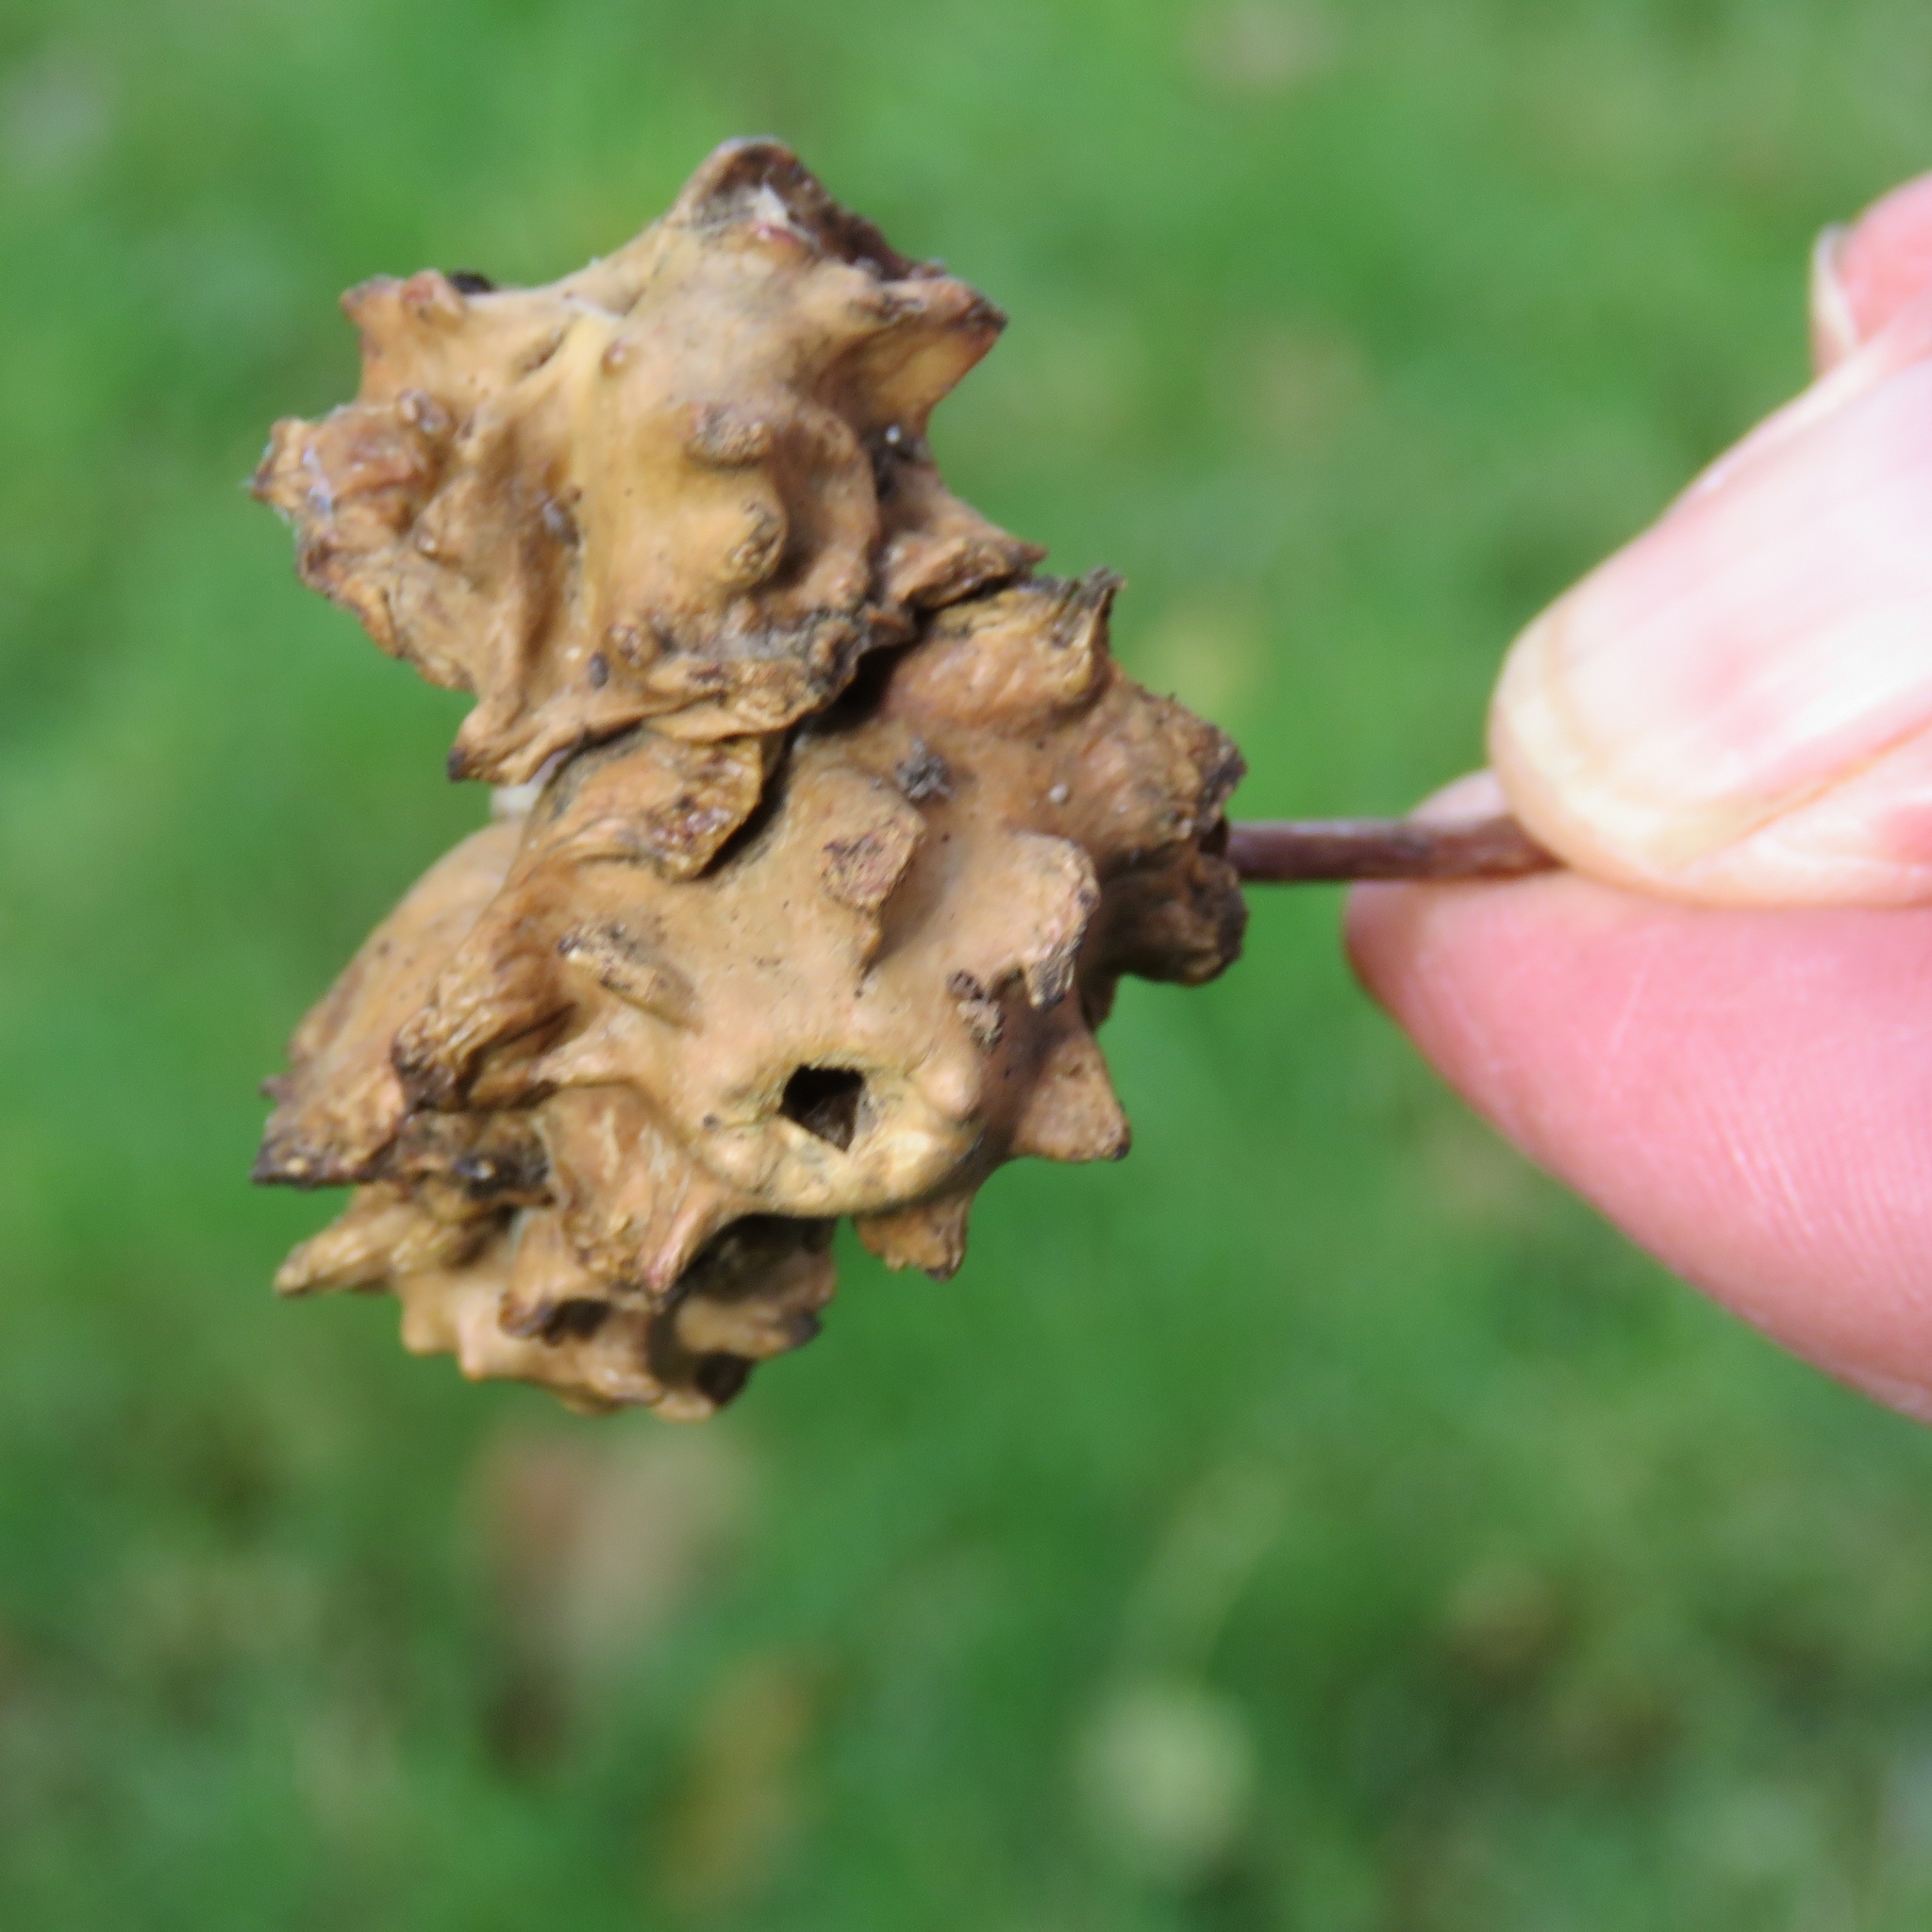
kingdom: Animalia
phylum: Arthropoda
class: Insecta
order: Hymenoptera
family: Cynipidae
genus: Andricus
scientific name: Andricus quercuscalicis
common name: Knopper gall
